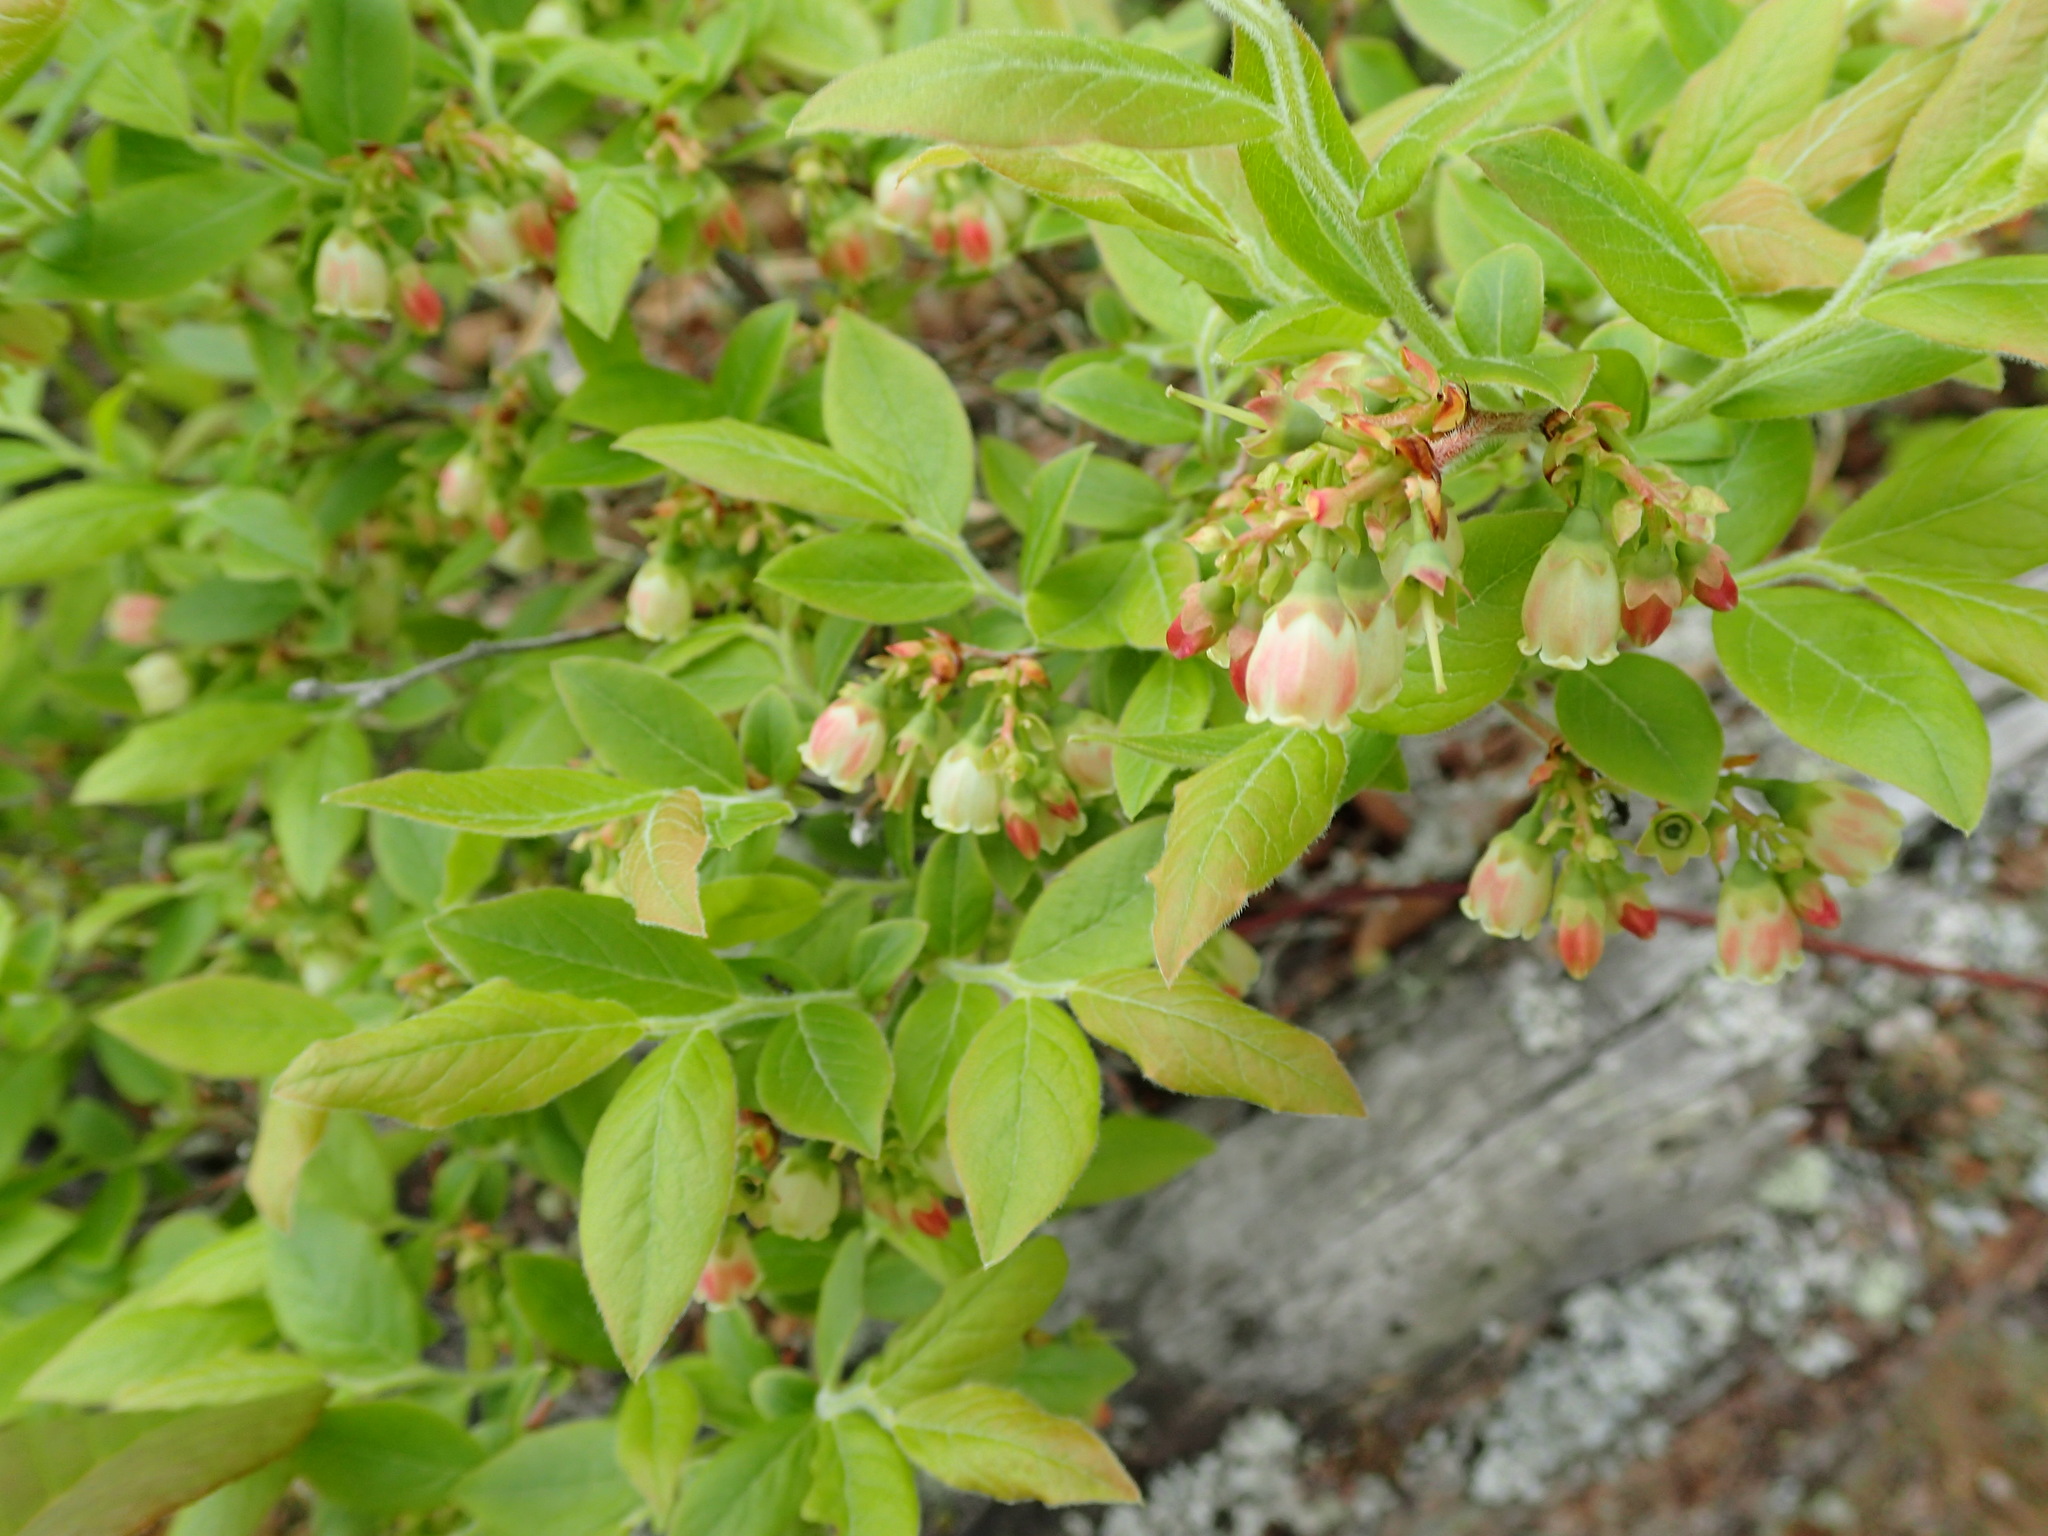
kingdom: Plantae
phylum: Tracheophyta
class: Magnoliopsida
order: Ericales
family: Ericaceae
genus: Vaccinium
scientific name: Vaccinium myrtilloides
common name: Canada blueberry
